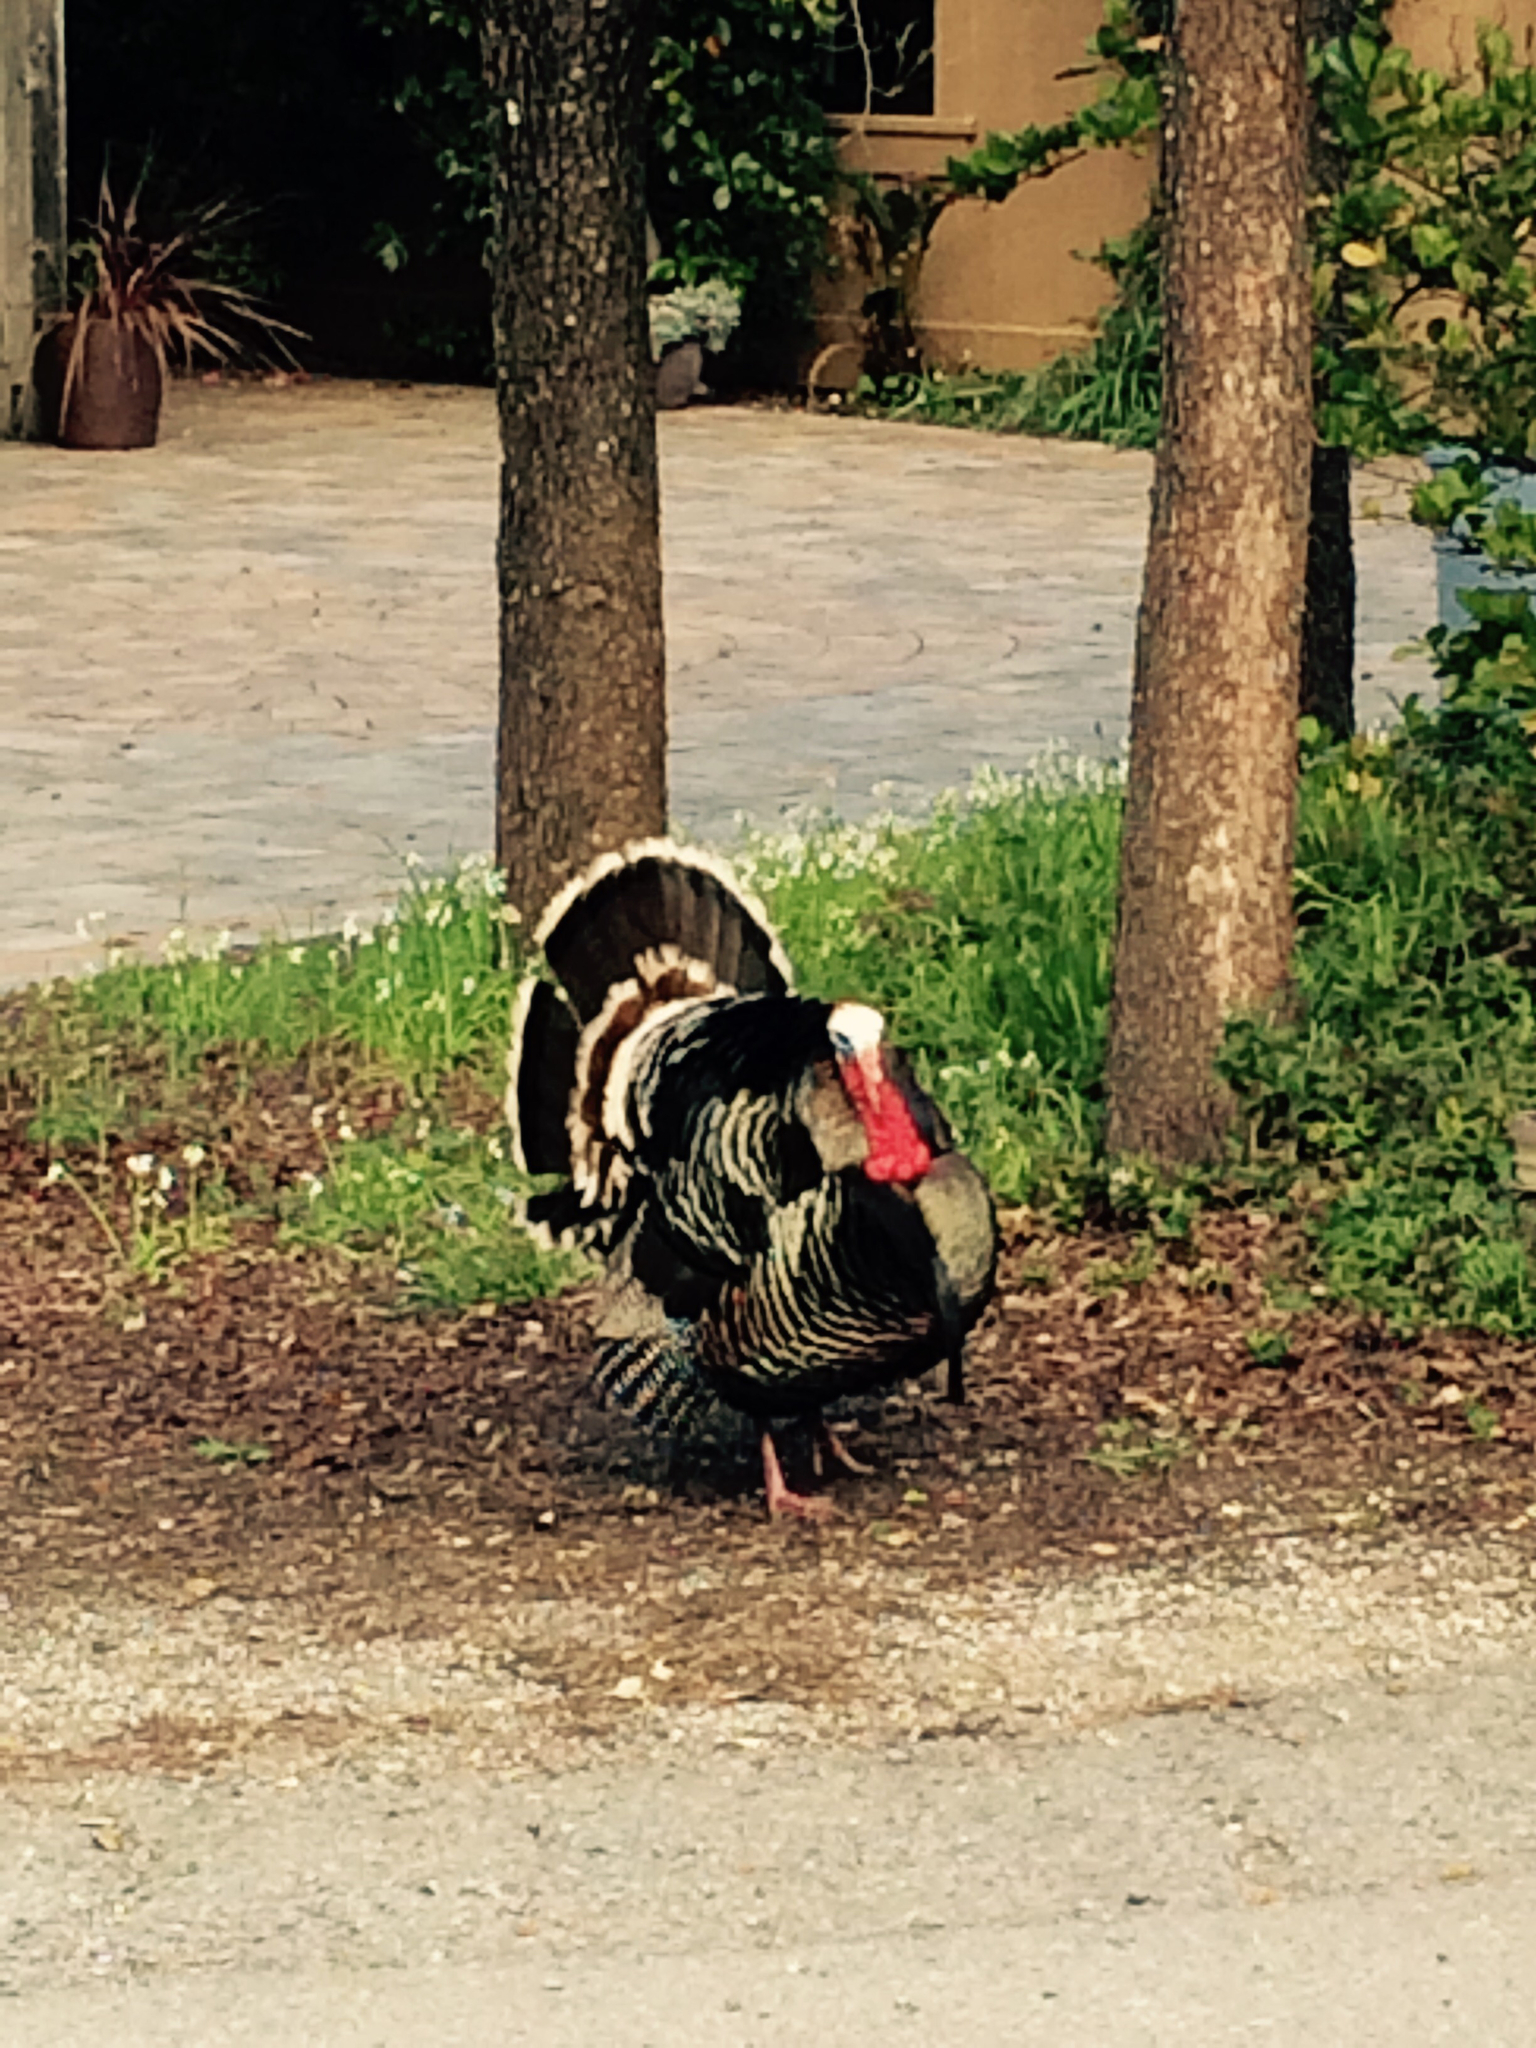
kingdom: Animalia
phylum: Chordata
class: Aves
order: Galliformes
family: Phasianidae
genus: Meleagris
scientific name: Meleagris gallopavo
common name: Wild turkey
